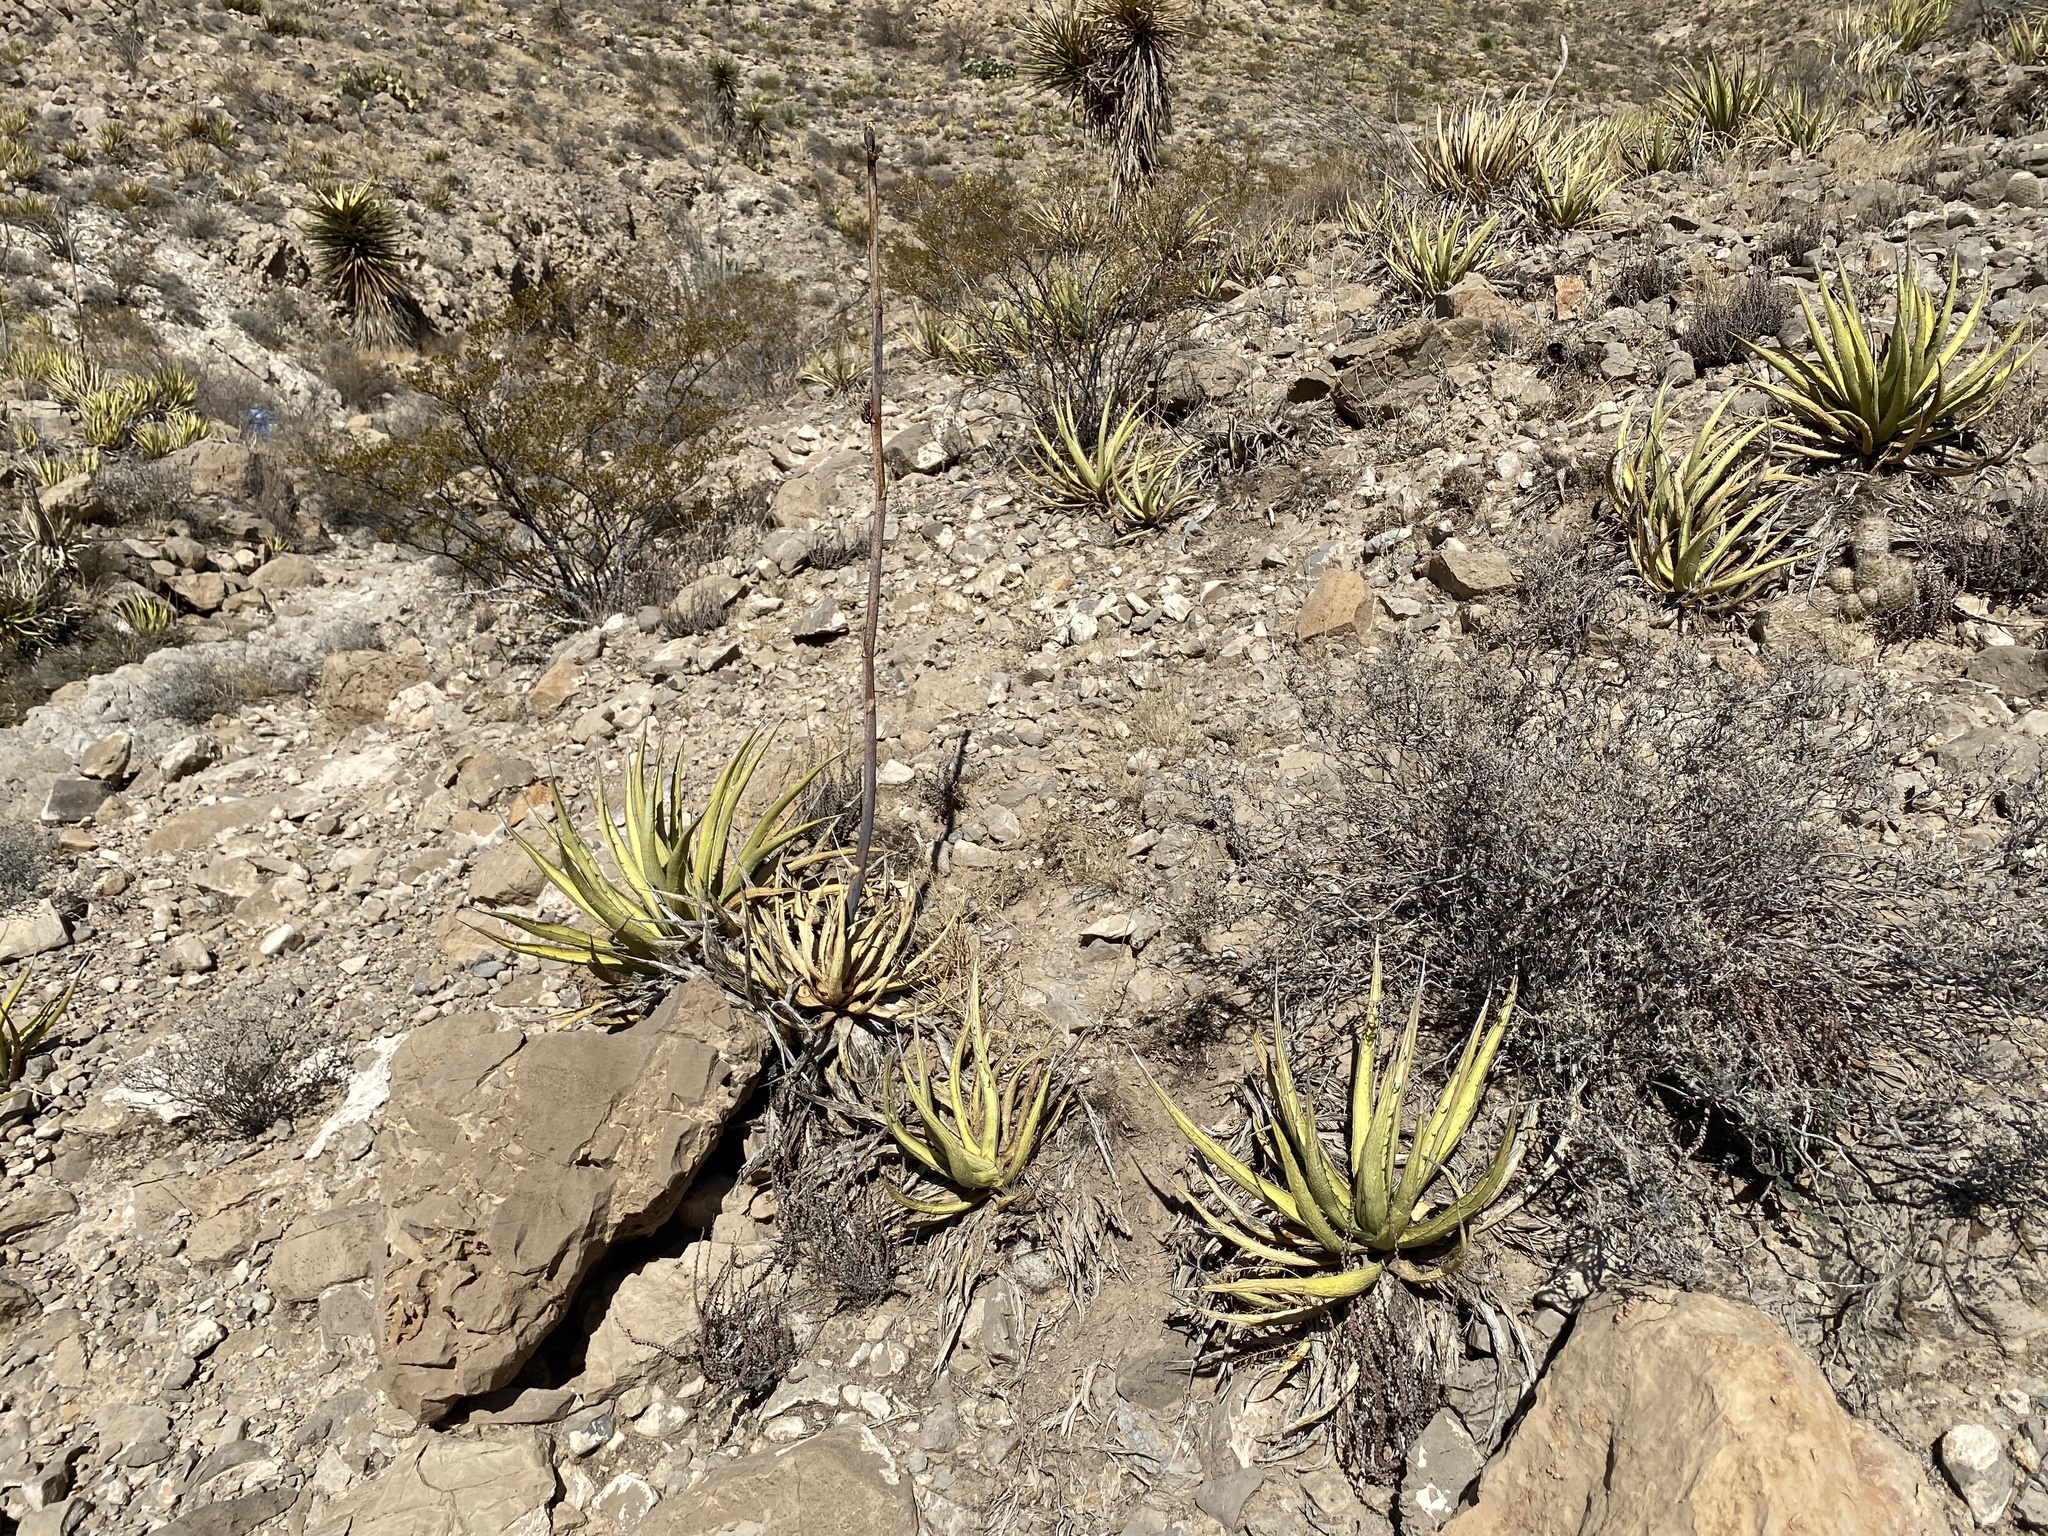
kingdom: Plantae
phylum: Tracheophyta
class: Liliopsida
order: Asparagales
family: Asparagaceae
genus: Agave
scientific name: Agave lechuguilla
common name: Lecheguilla agave
